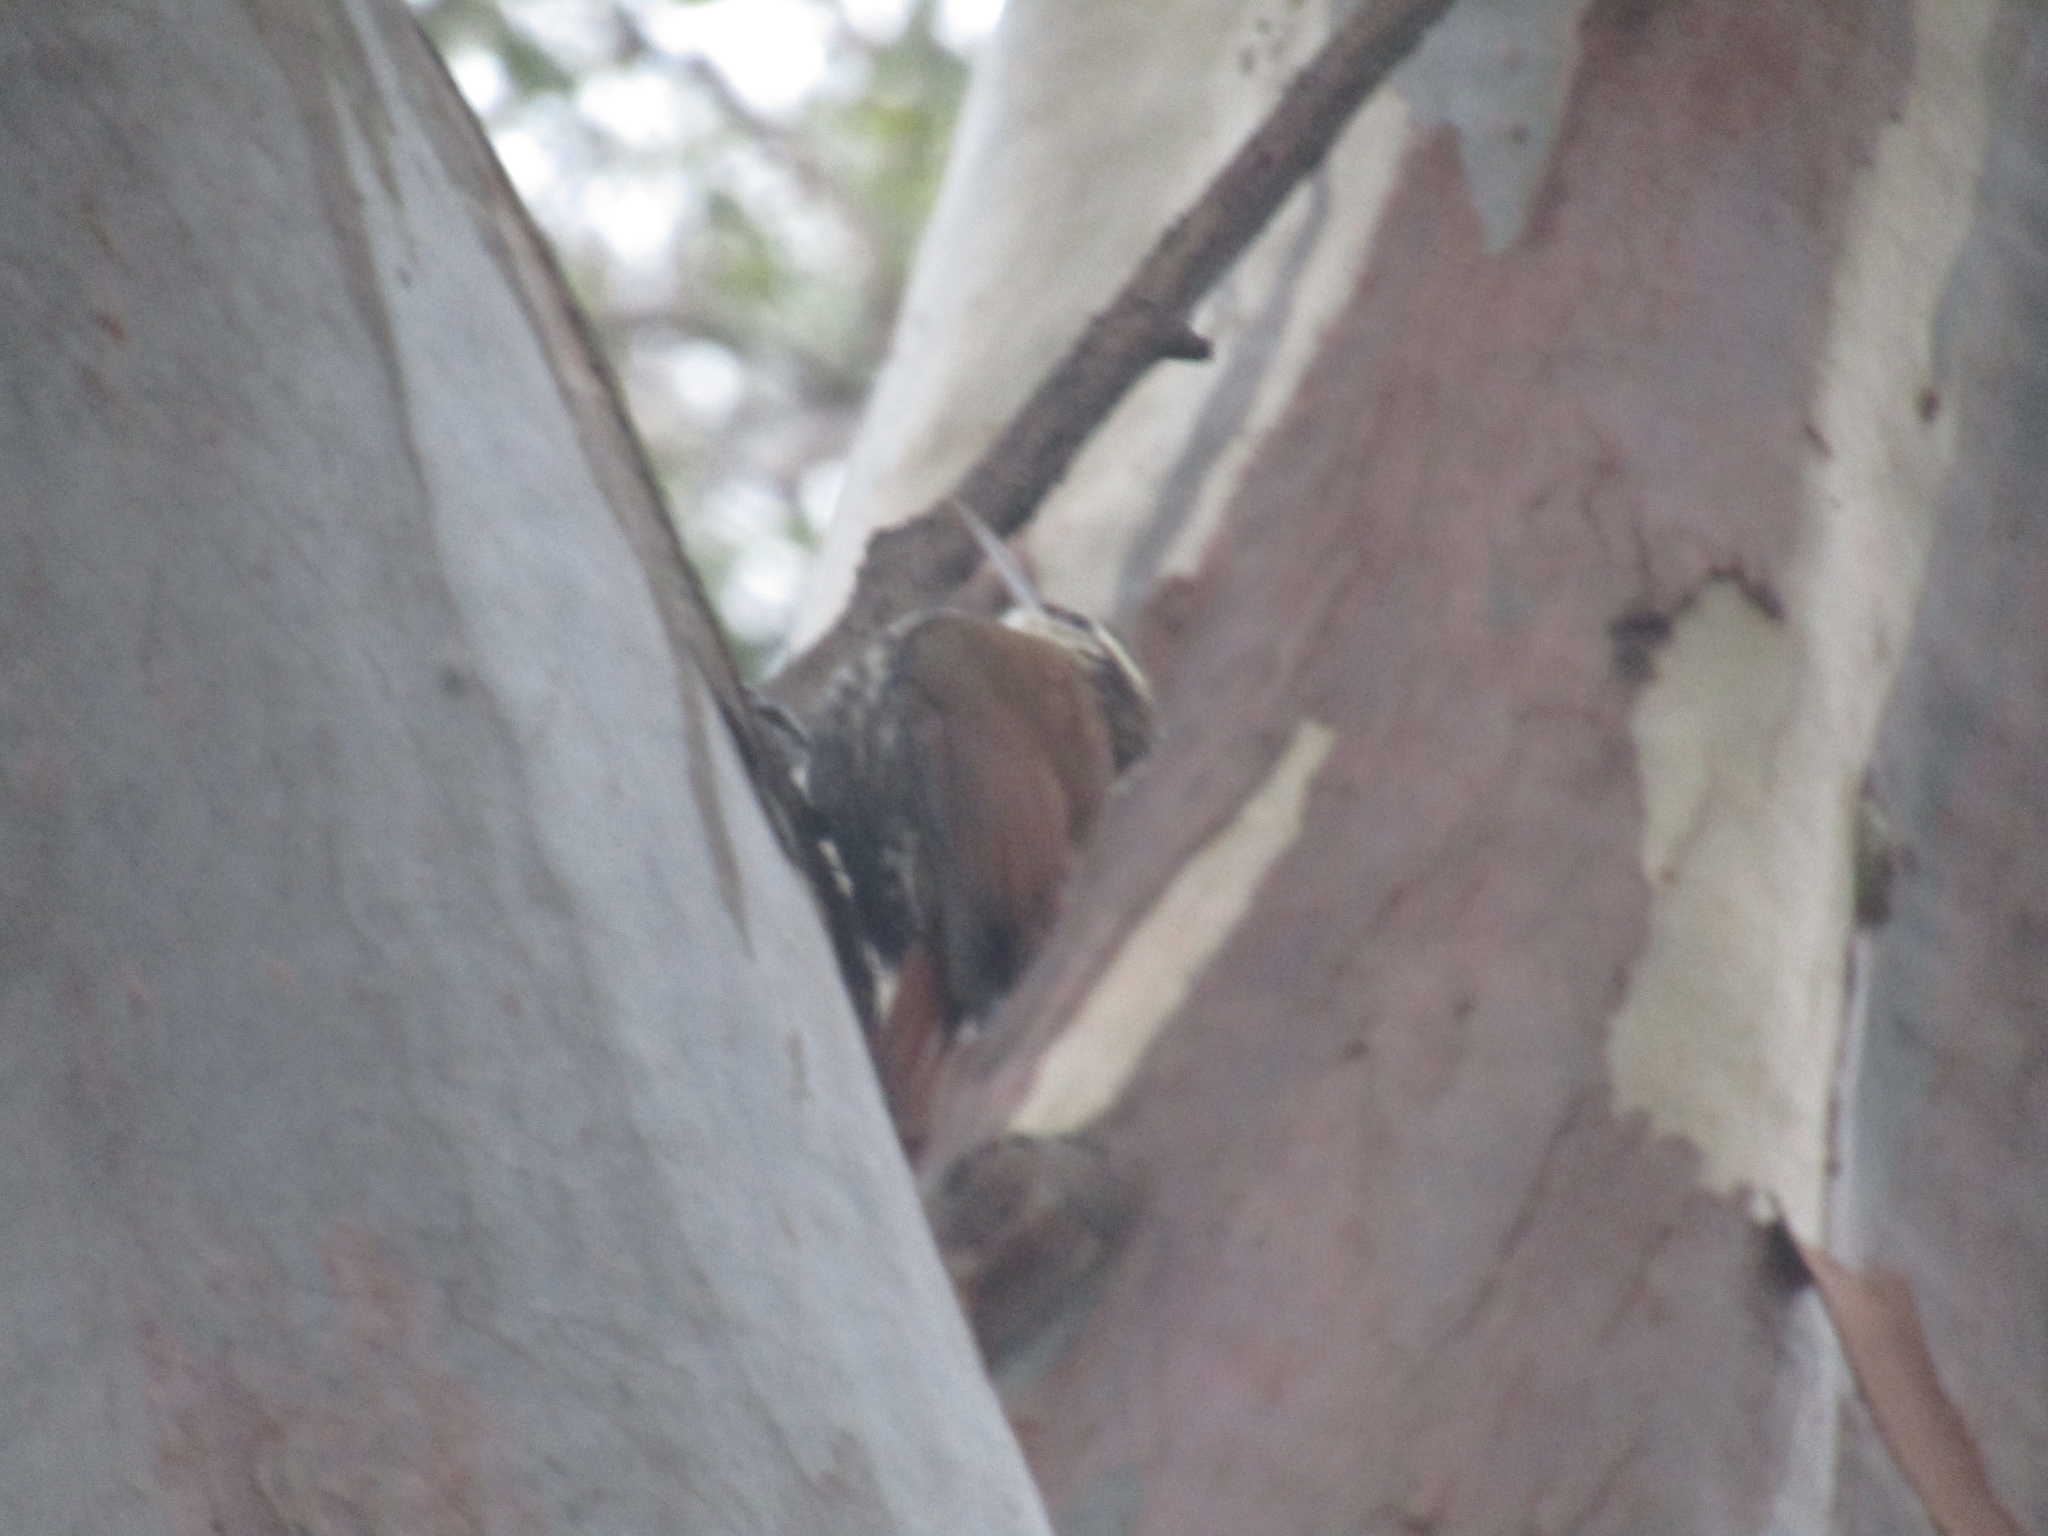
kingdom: Animalia
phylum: Chordata
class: Aves
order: Passeriformes
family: Furnariidae
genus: Lepidocolaptes
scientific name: Lepidocolaptes angustirostris
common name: Narrow-billed woodcreeper
